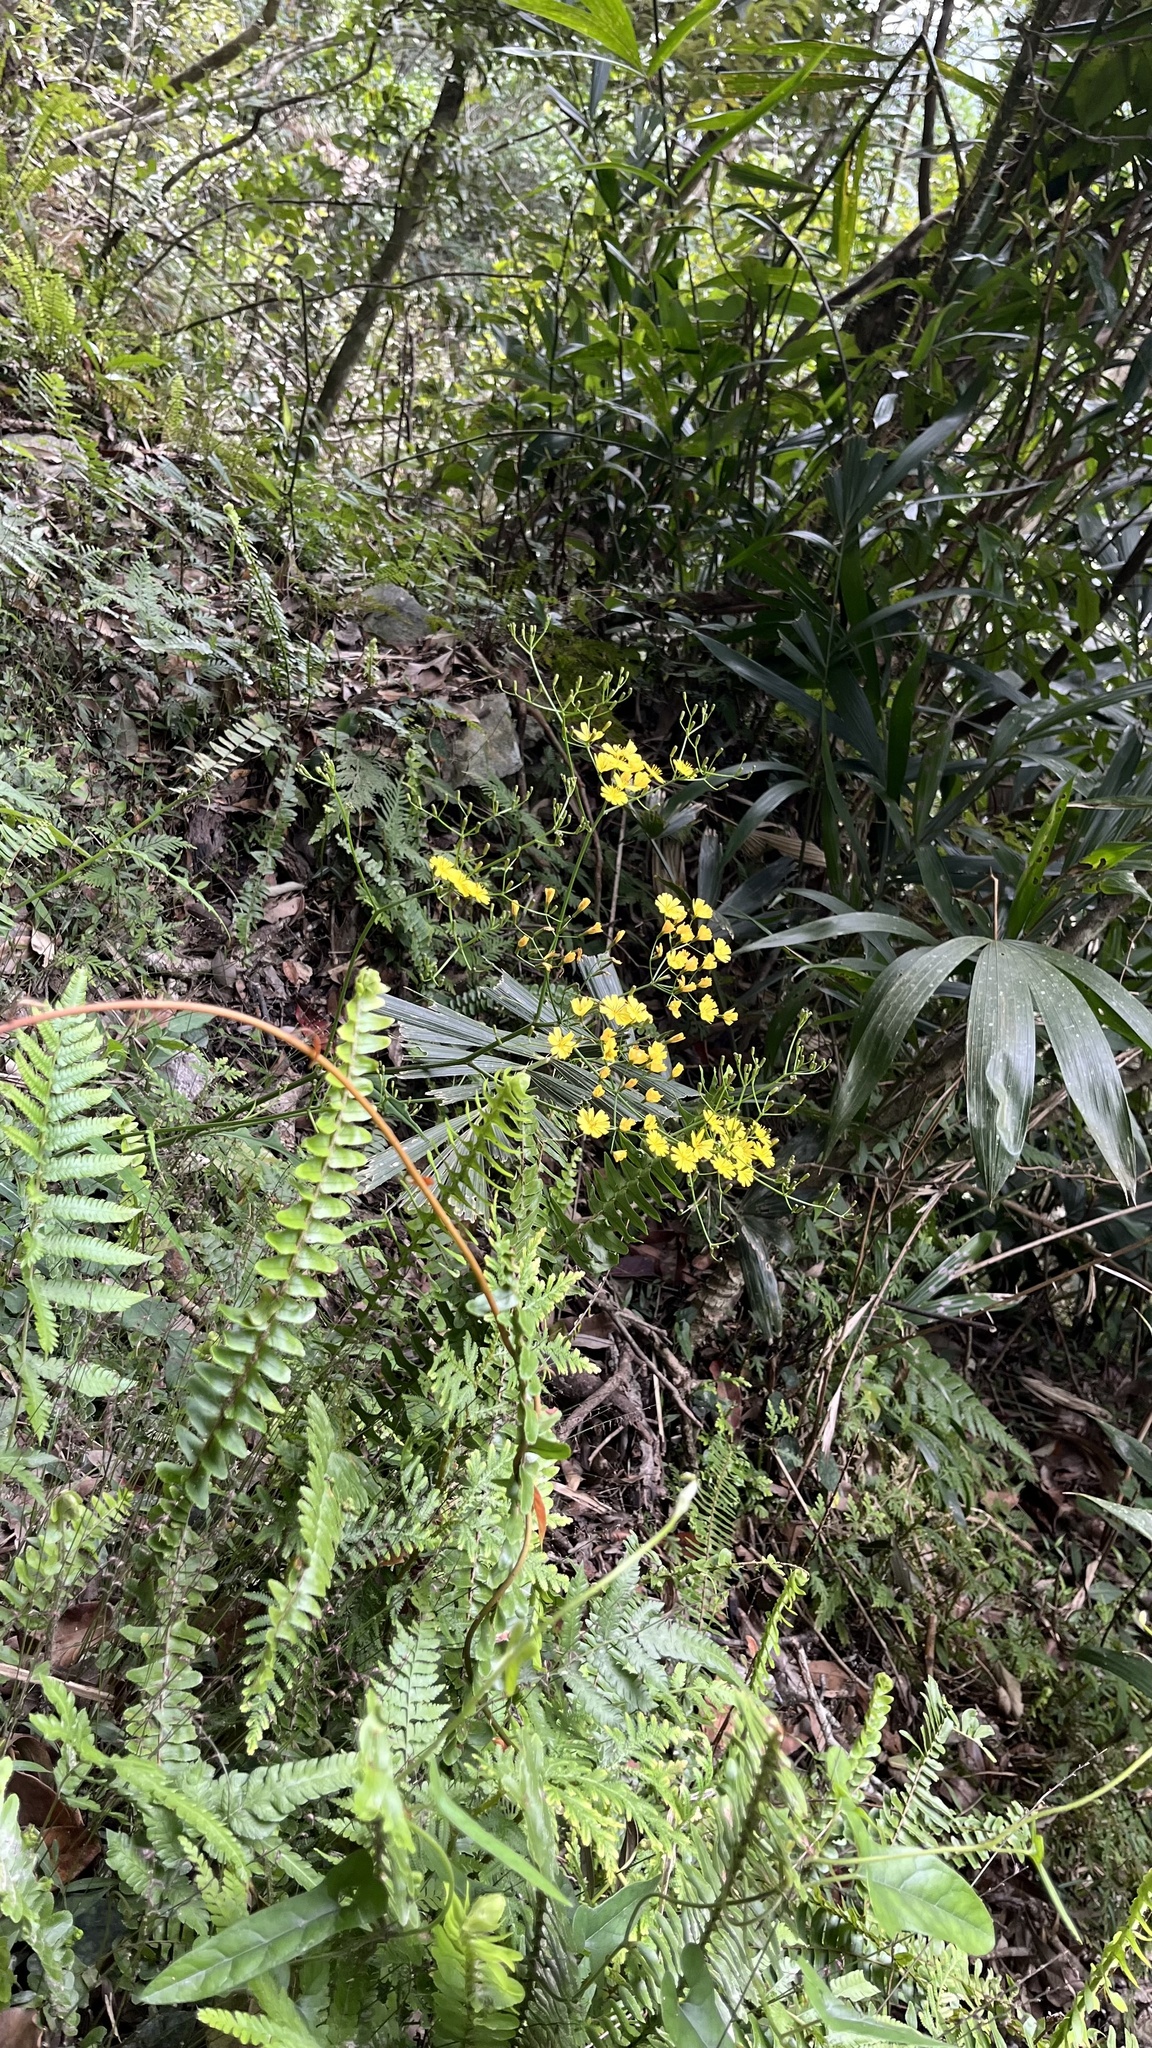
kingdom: Plantae
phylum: Tracheophyta
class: Magnoliopsida
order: Asterales
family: Asteraceae
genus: Ixeridium
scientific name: Ixeridium laevigatum
